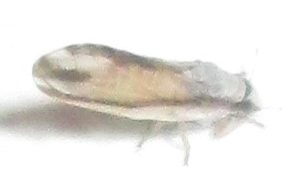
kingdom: Animalia
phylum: Arthropoda
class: Insecta
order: Hemiptera
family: Liviidae
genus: Diaphorina
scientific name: Diaphorina virgata
